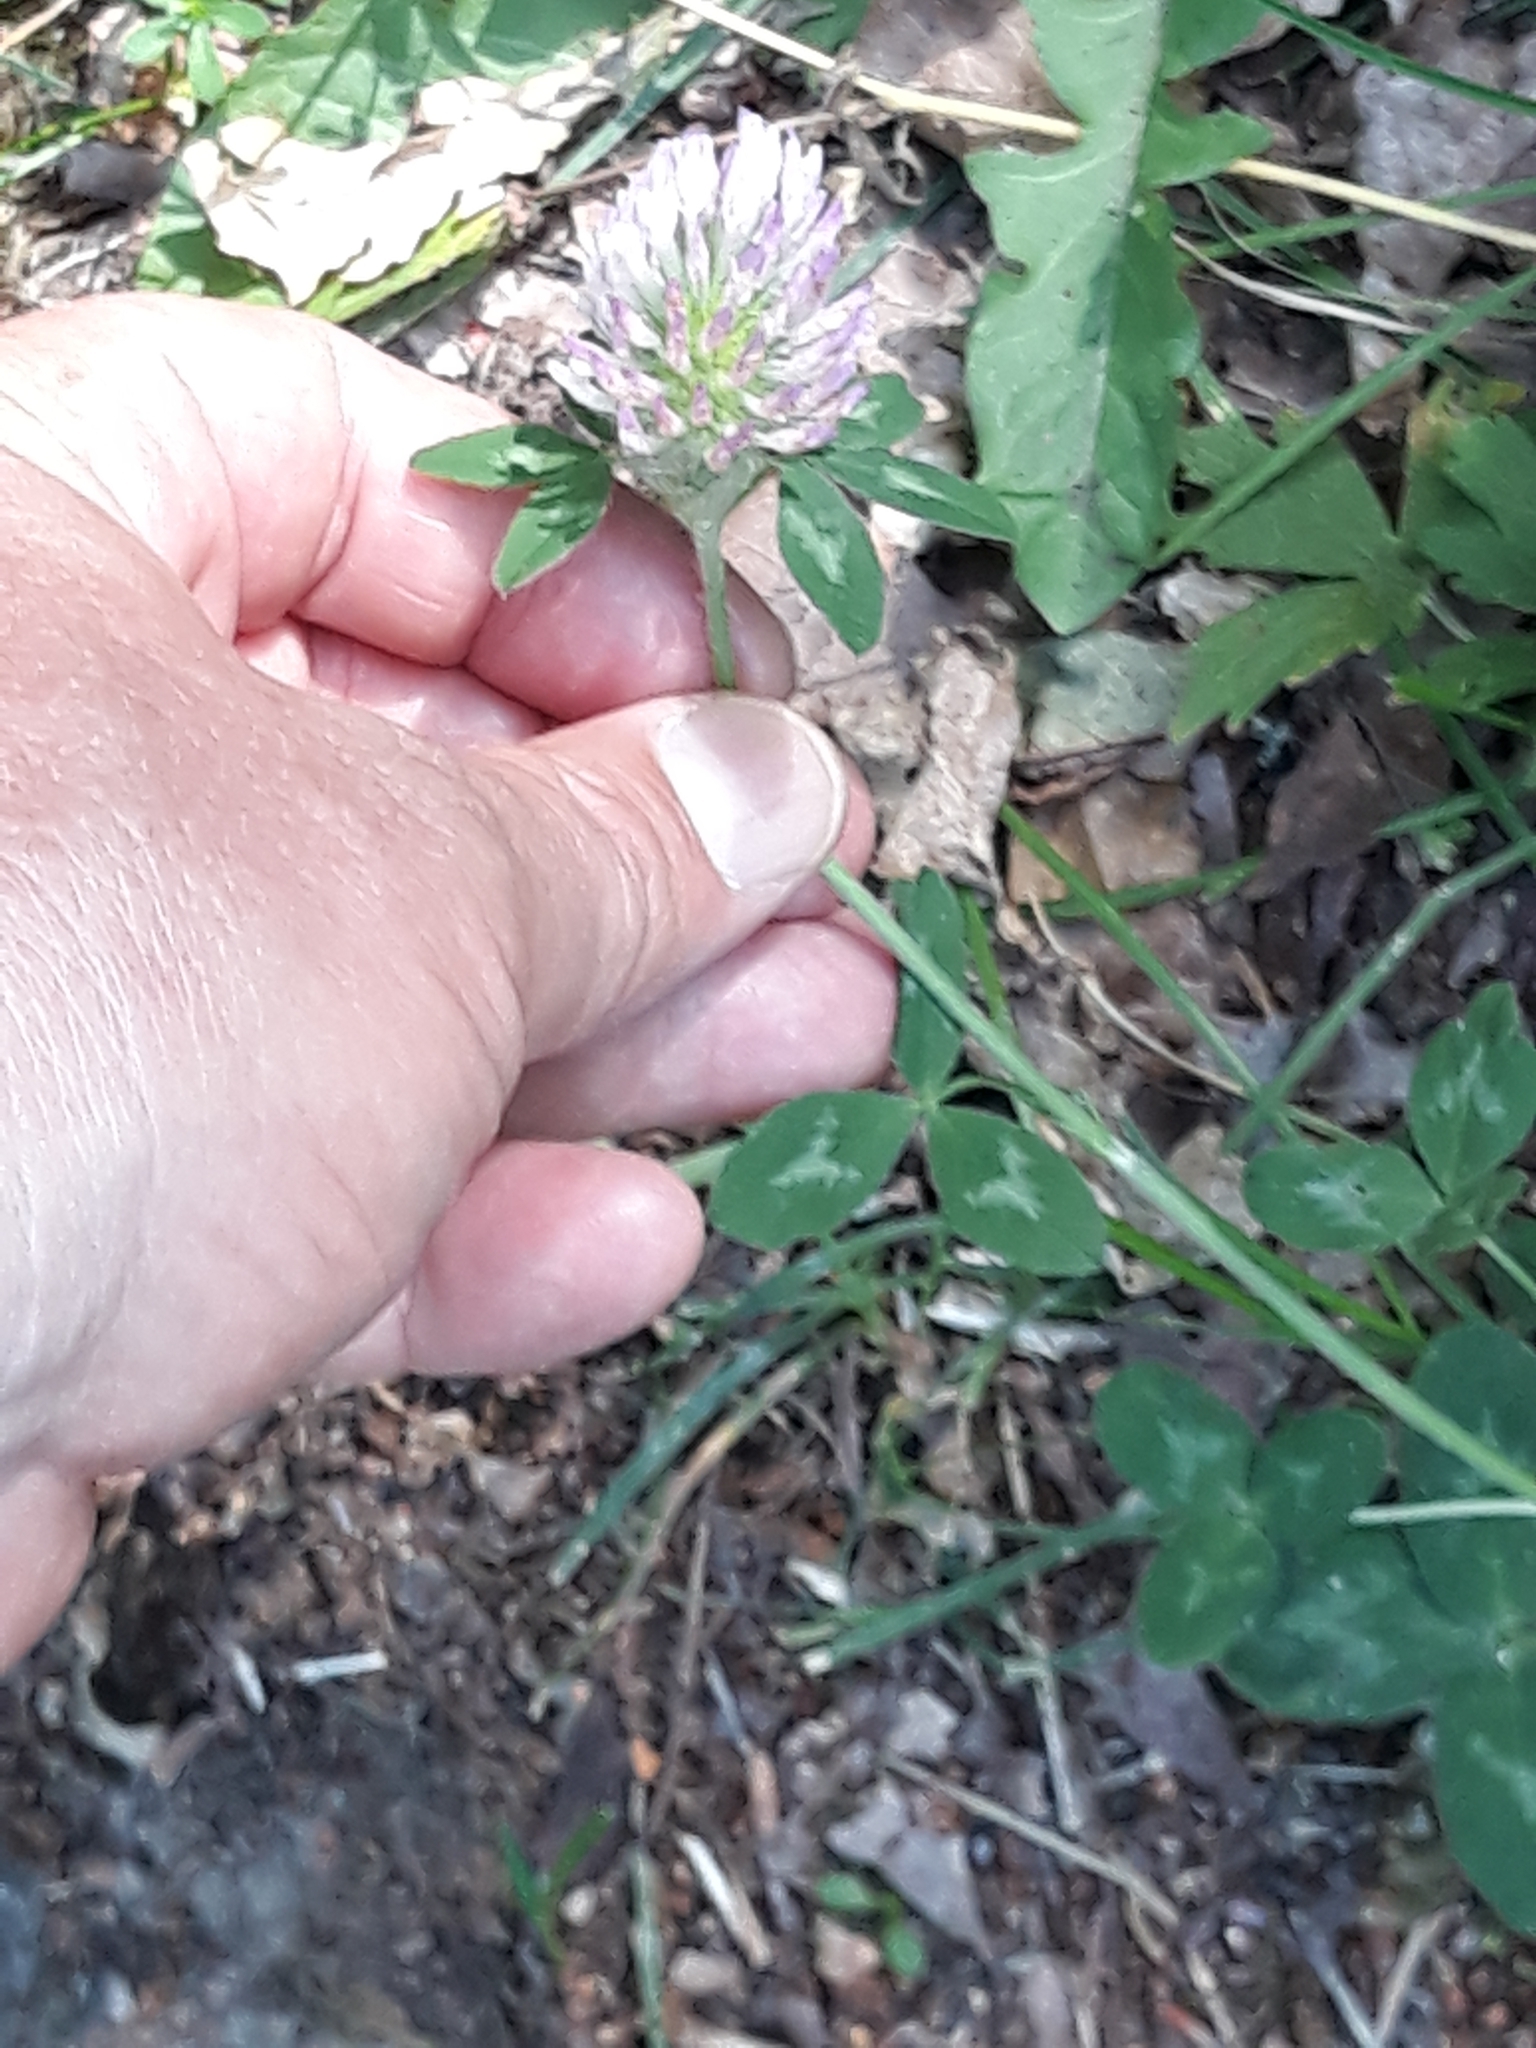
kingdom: Plantae
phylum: Tracheophyta
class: Magnoliopsida
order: Fabales
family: Fabaceae
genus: Trifolium
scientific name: Trifolium pratense
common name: Red clover
